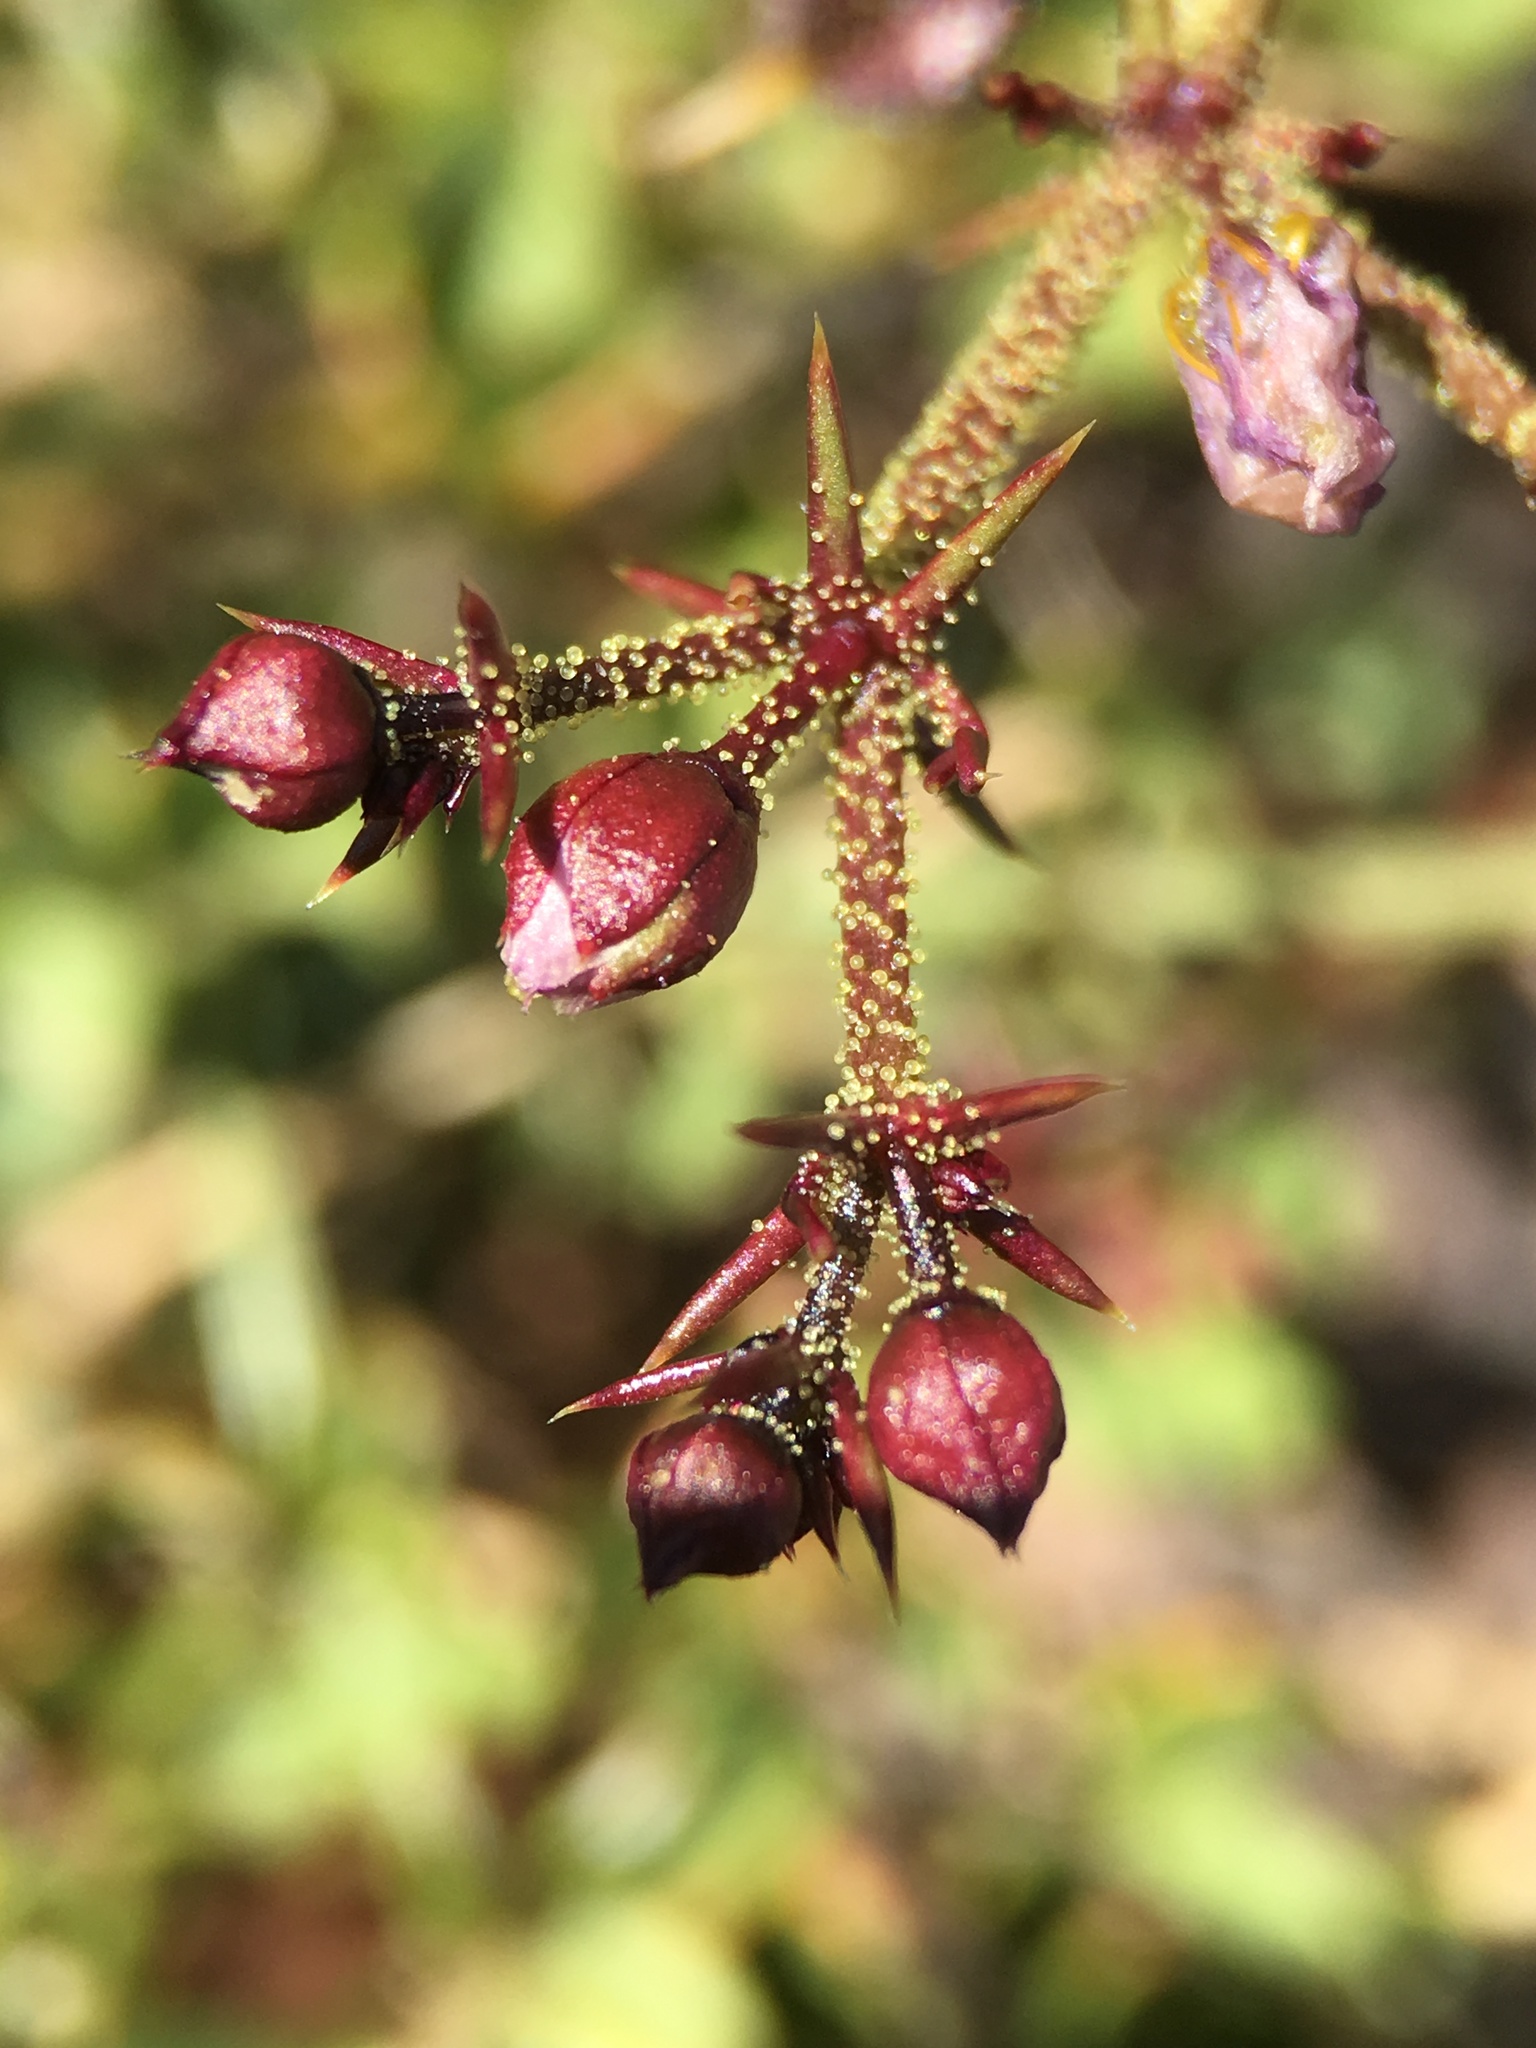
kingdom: Plantae
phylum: Tracheophyta
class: Magnoliopsida
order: Zygophyllales
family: Zygophyllaceae
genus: Fagonia
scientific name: Fagonia pachyacantha
